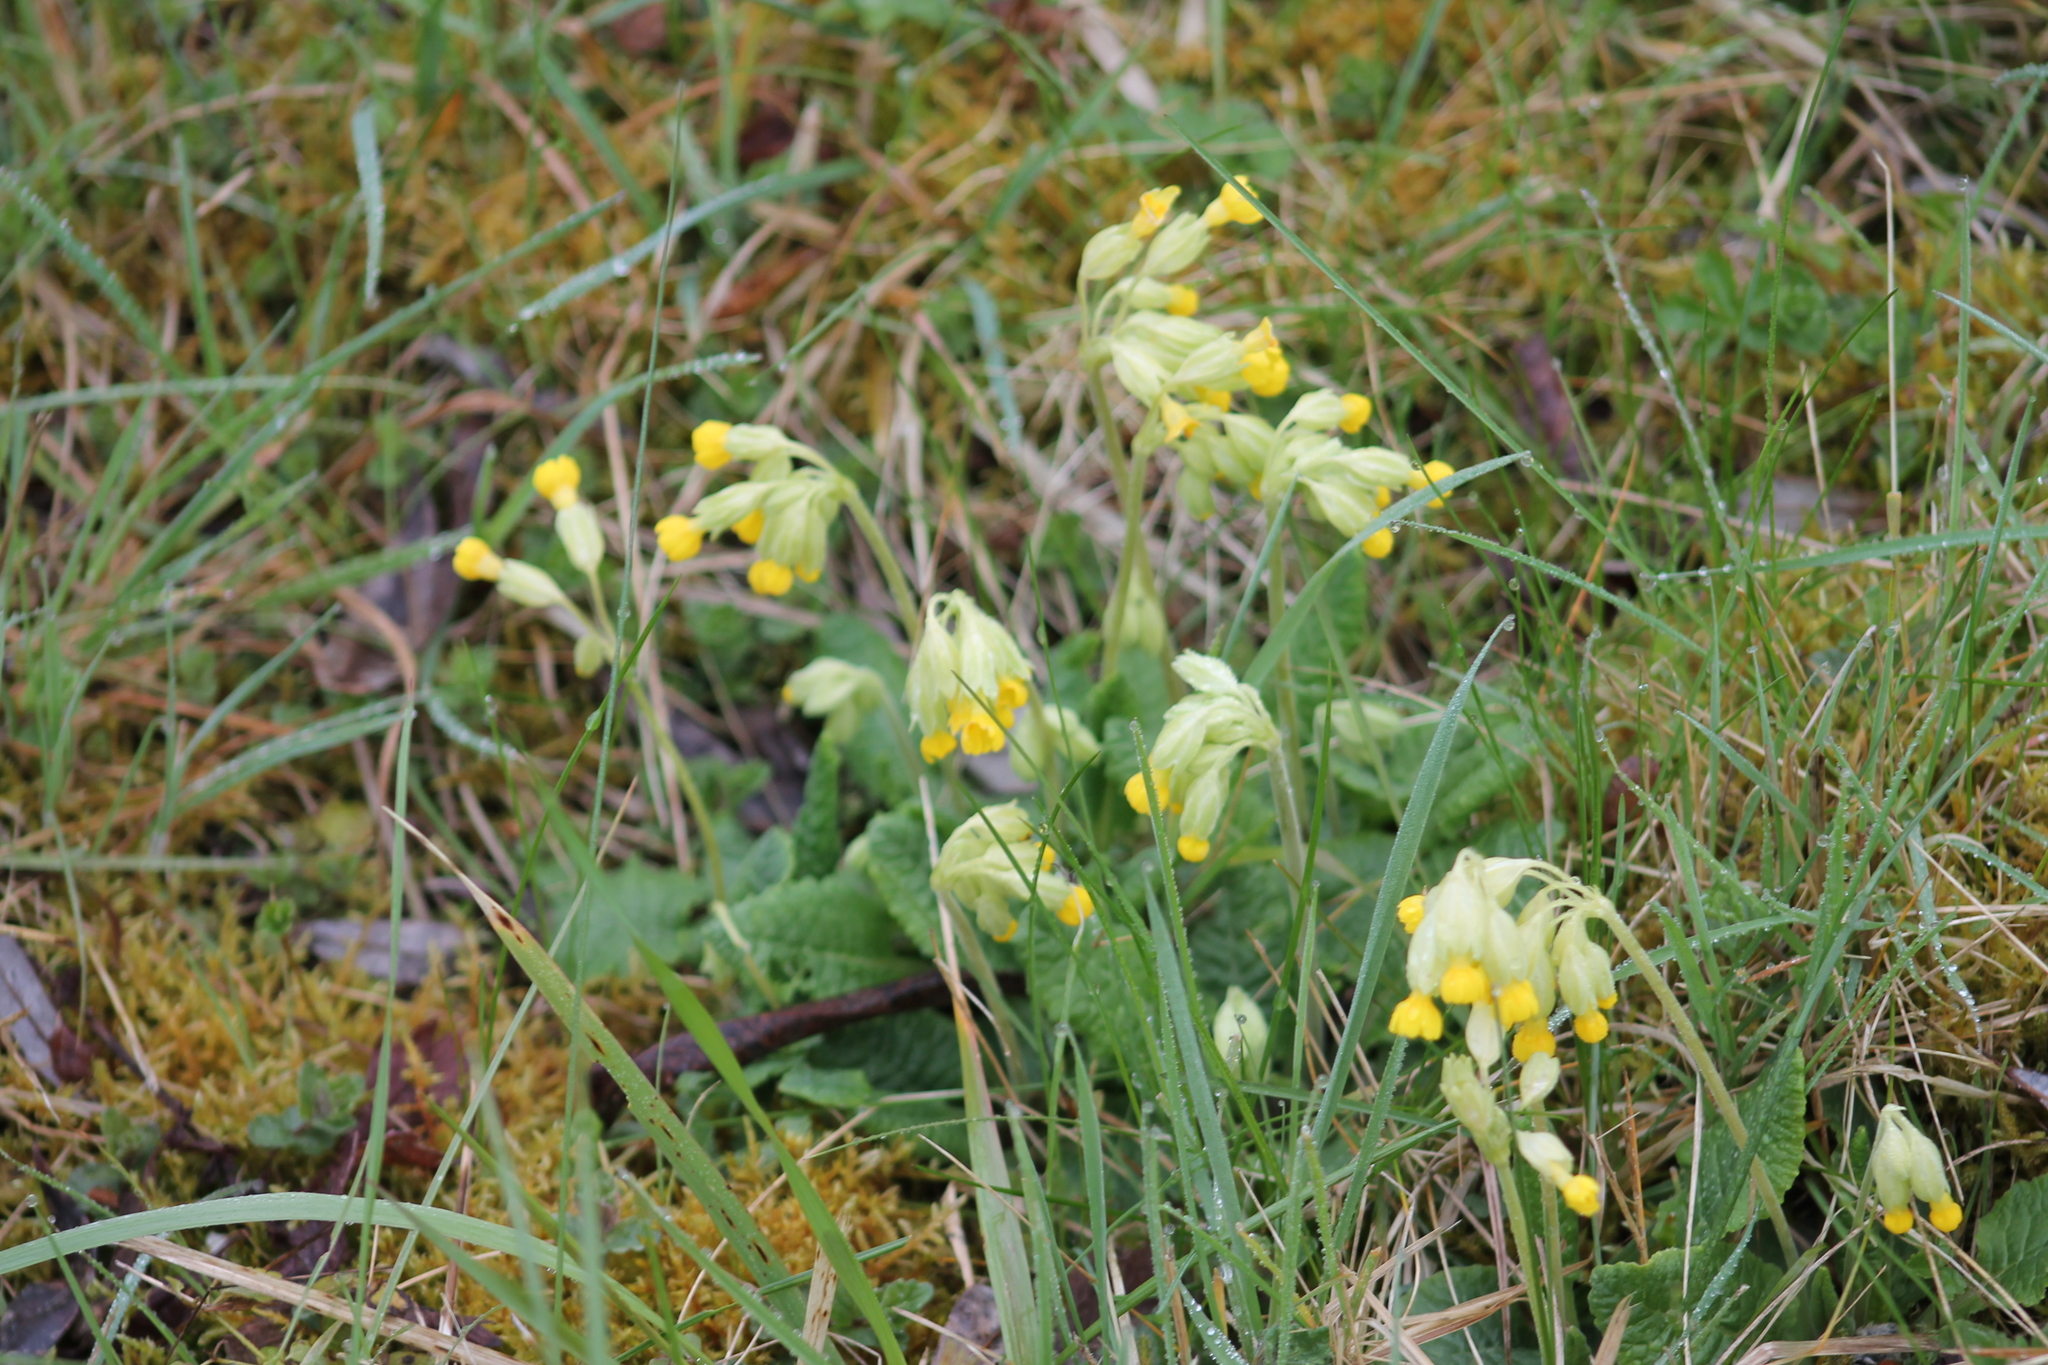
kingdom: Plantae
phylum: Tracheophyta
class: Magnoliopsida
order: Ericales
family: Primulaceae
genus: Primula
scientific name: Primula veris
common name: Cowslip
